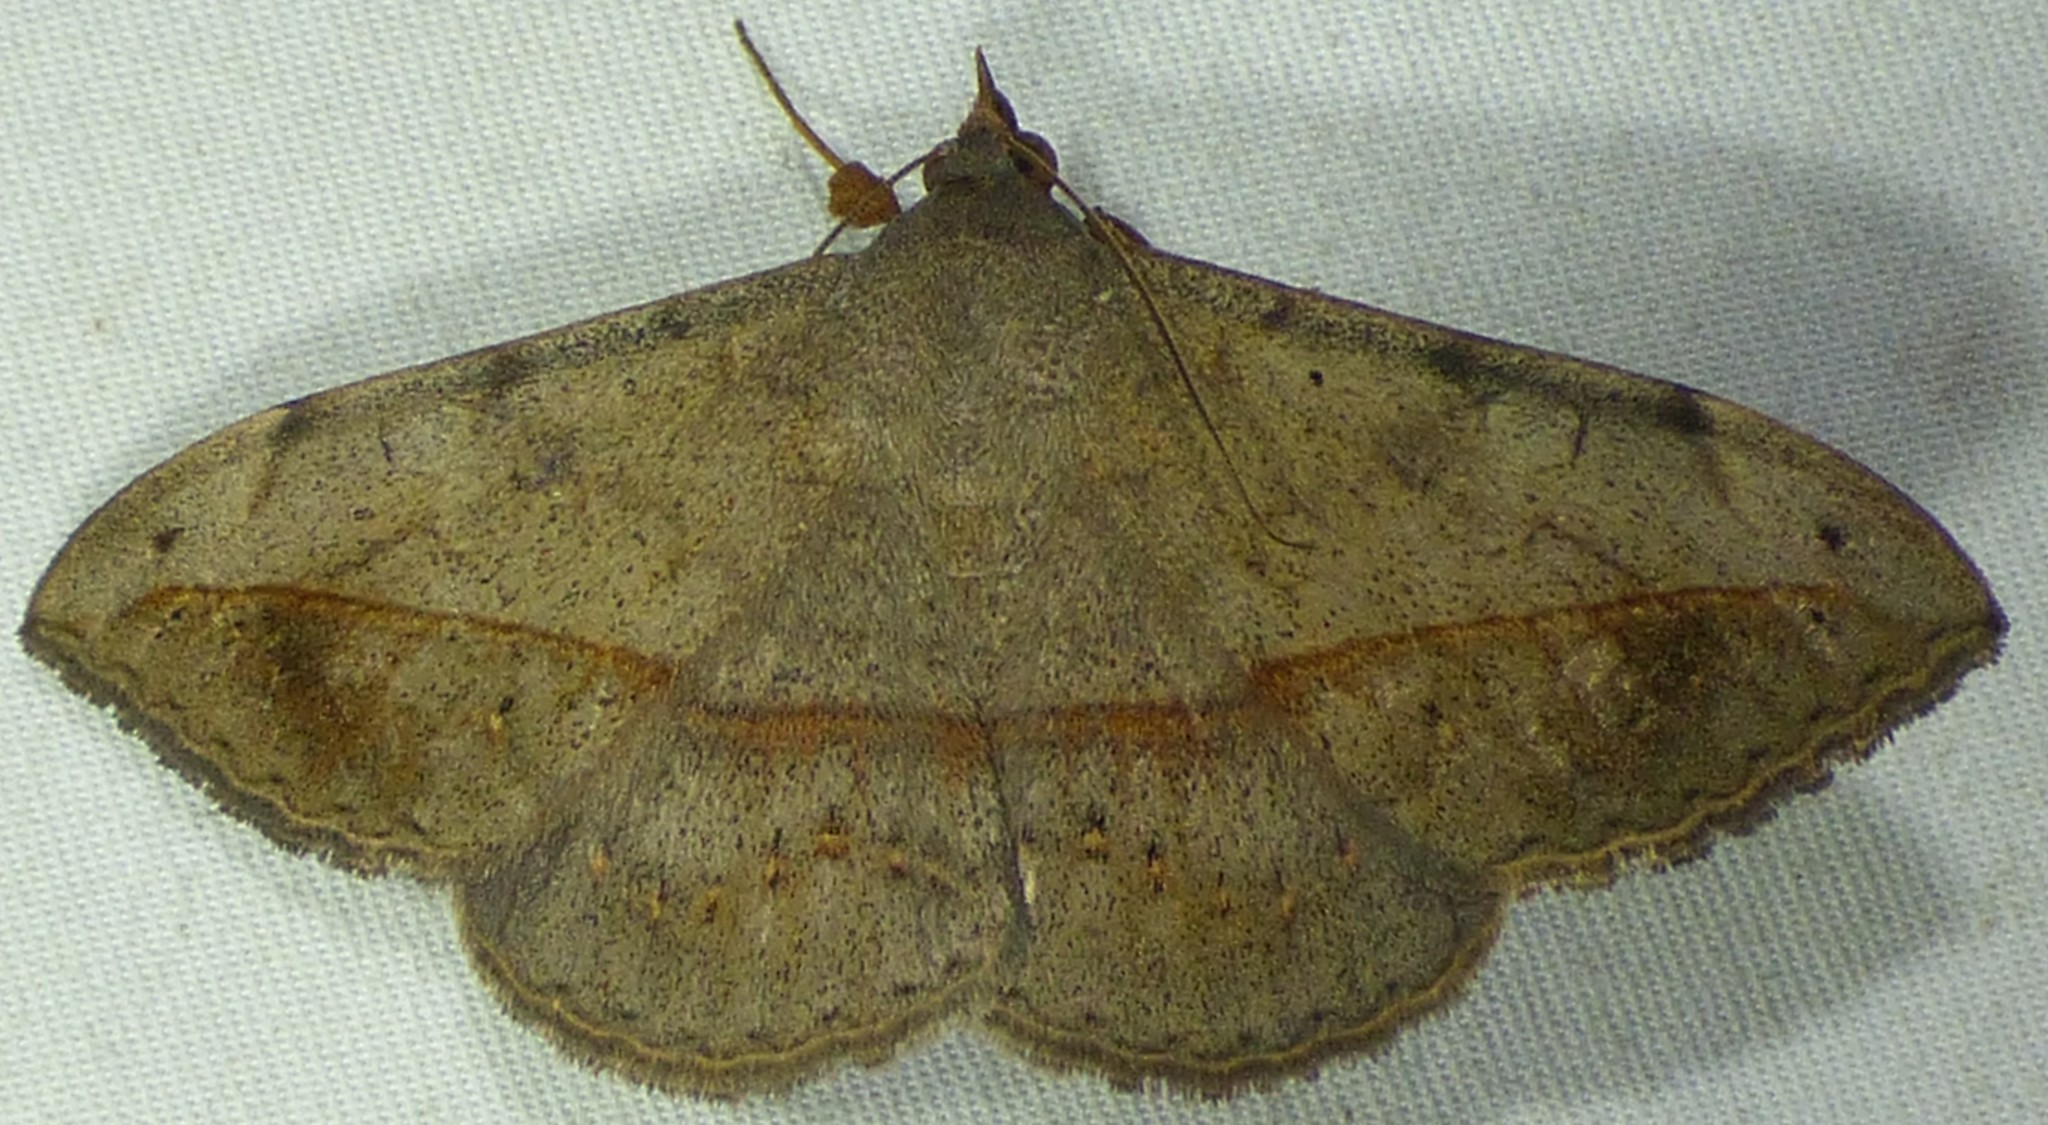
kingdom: Animalia
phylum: Arthropoda
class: Insecta
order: Lepidoptera
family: Erebidae
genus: Anticarsia
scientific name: Anticarsia gemmatalis
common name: Cutworm moth
